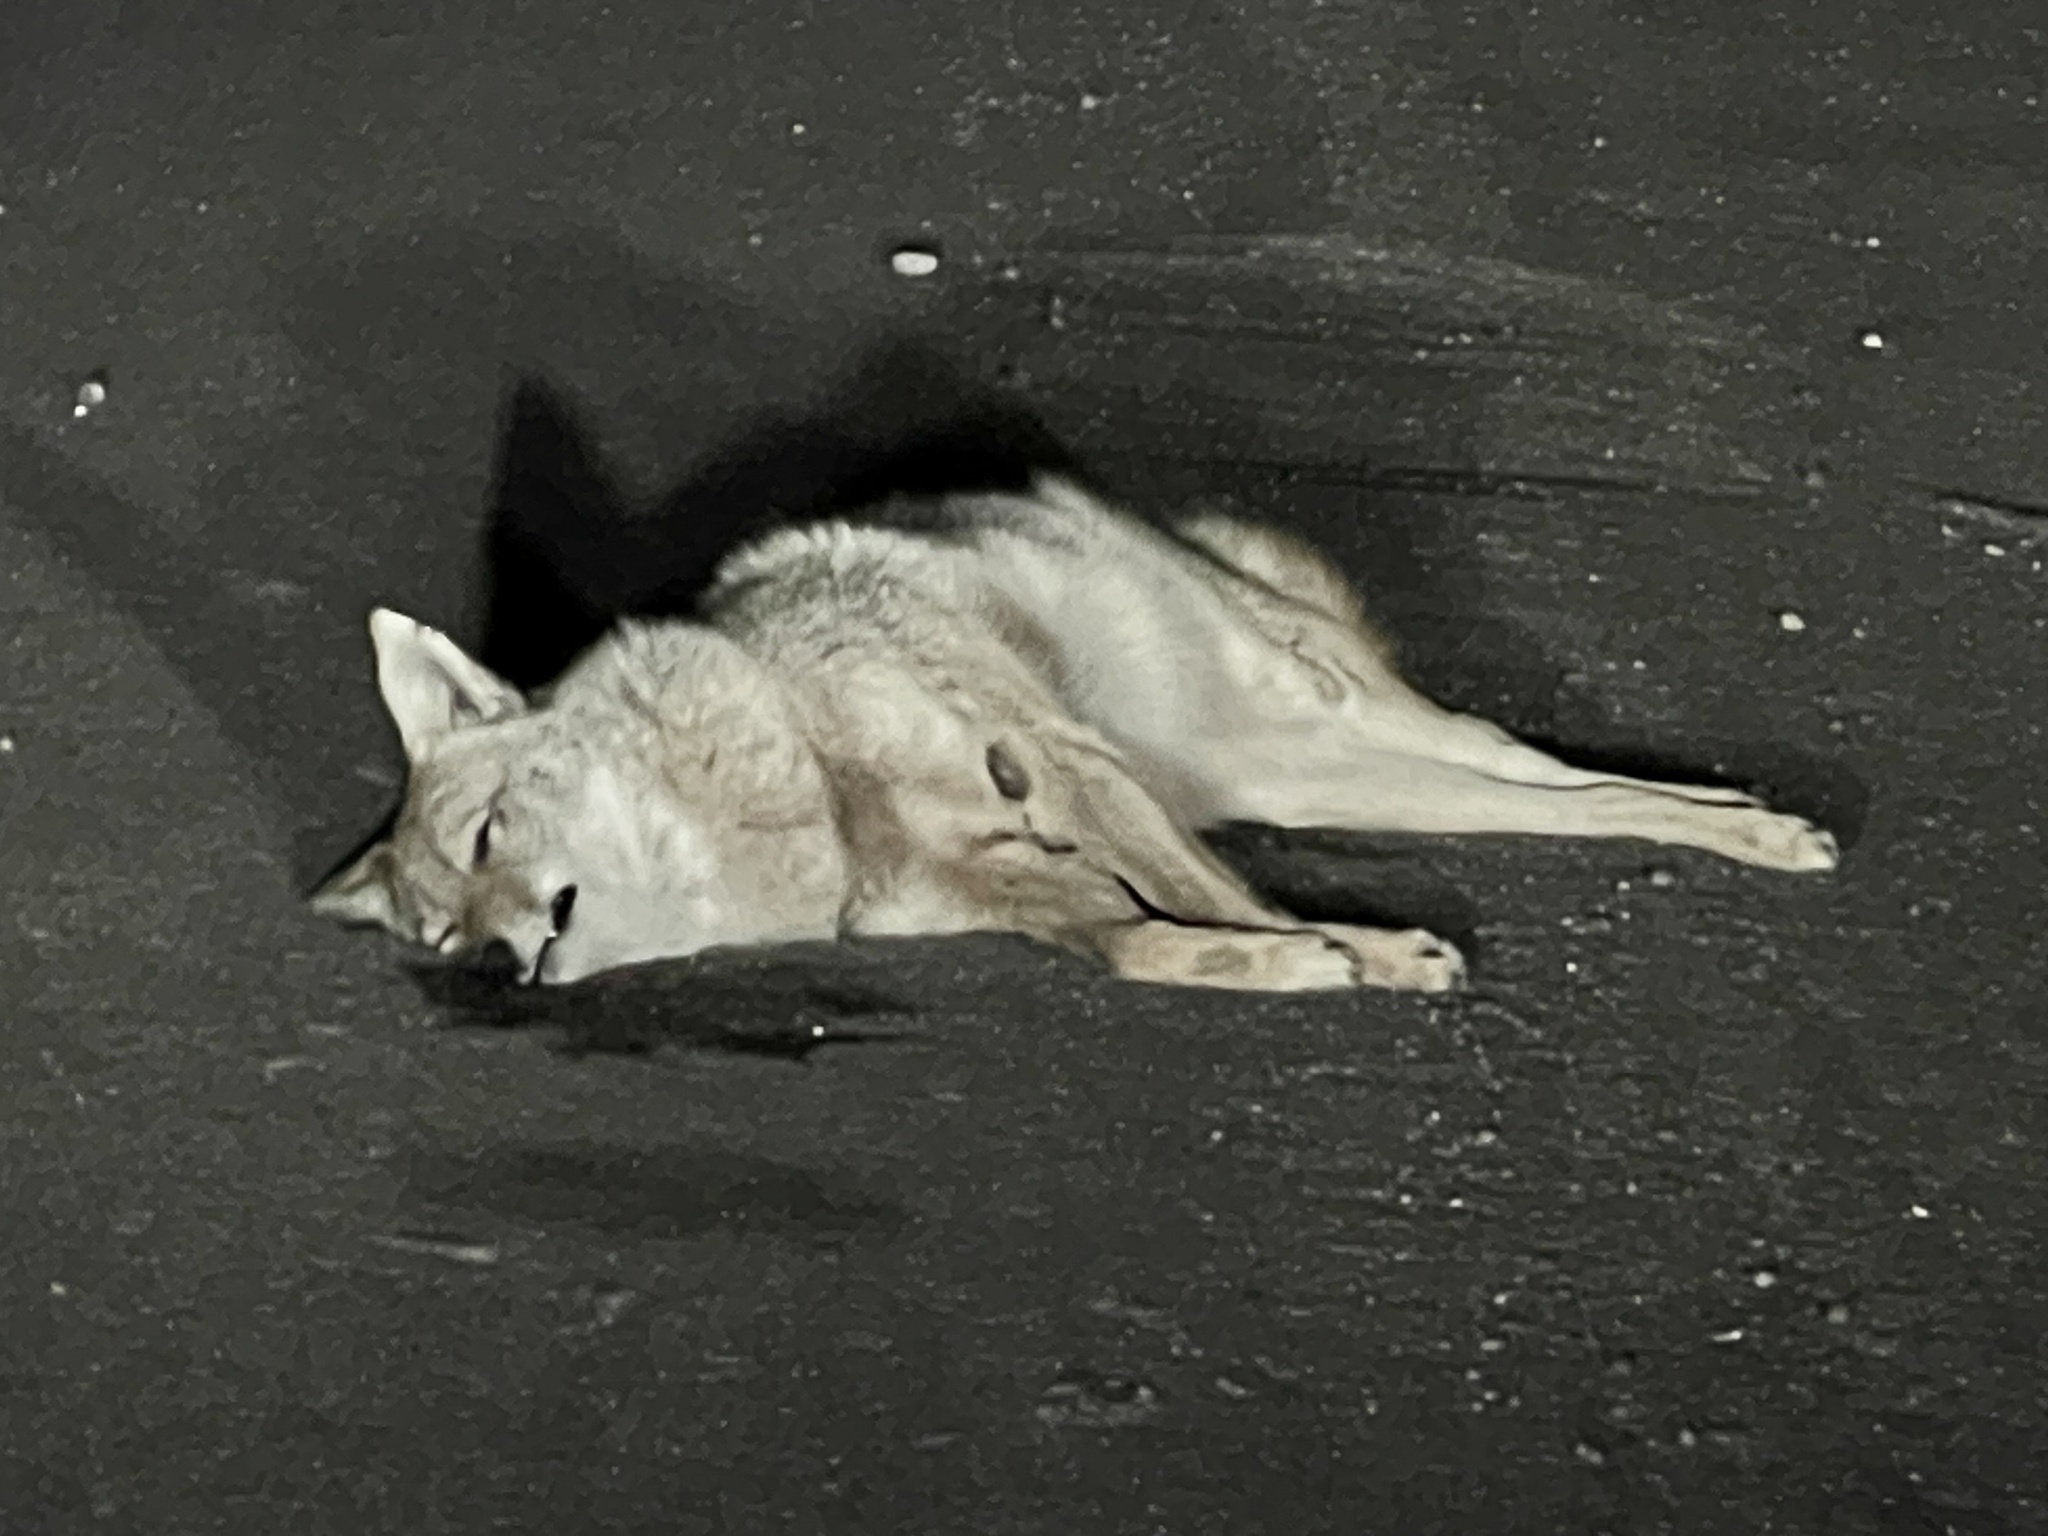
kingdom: Animalia
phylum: Chordata
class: Mammalia
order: Carnivora
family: Canidae
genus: Canis
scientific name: Canis latrans
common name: Coyote
